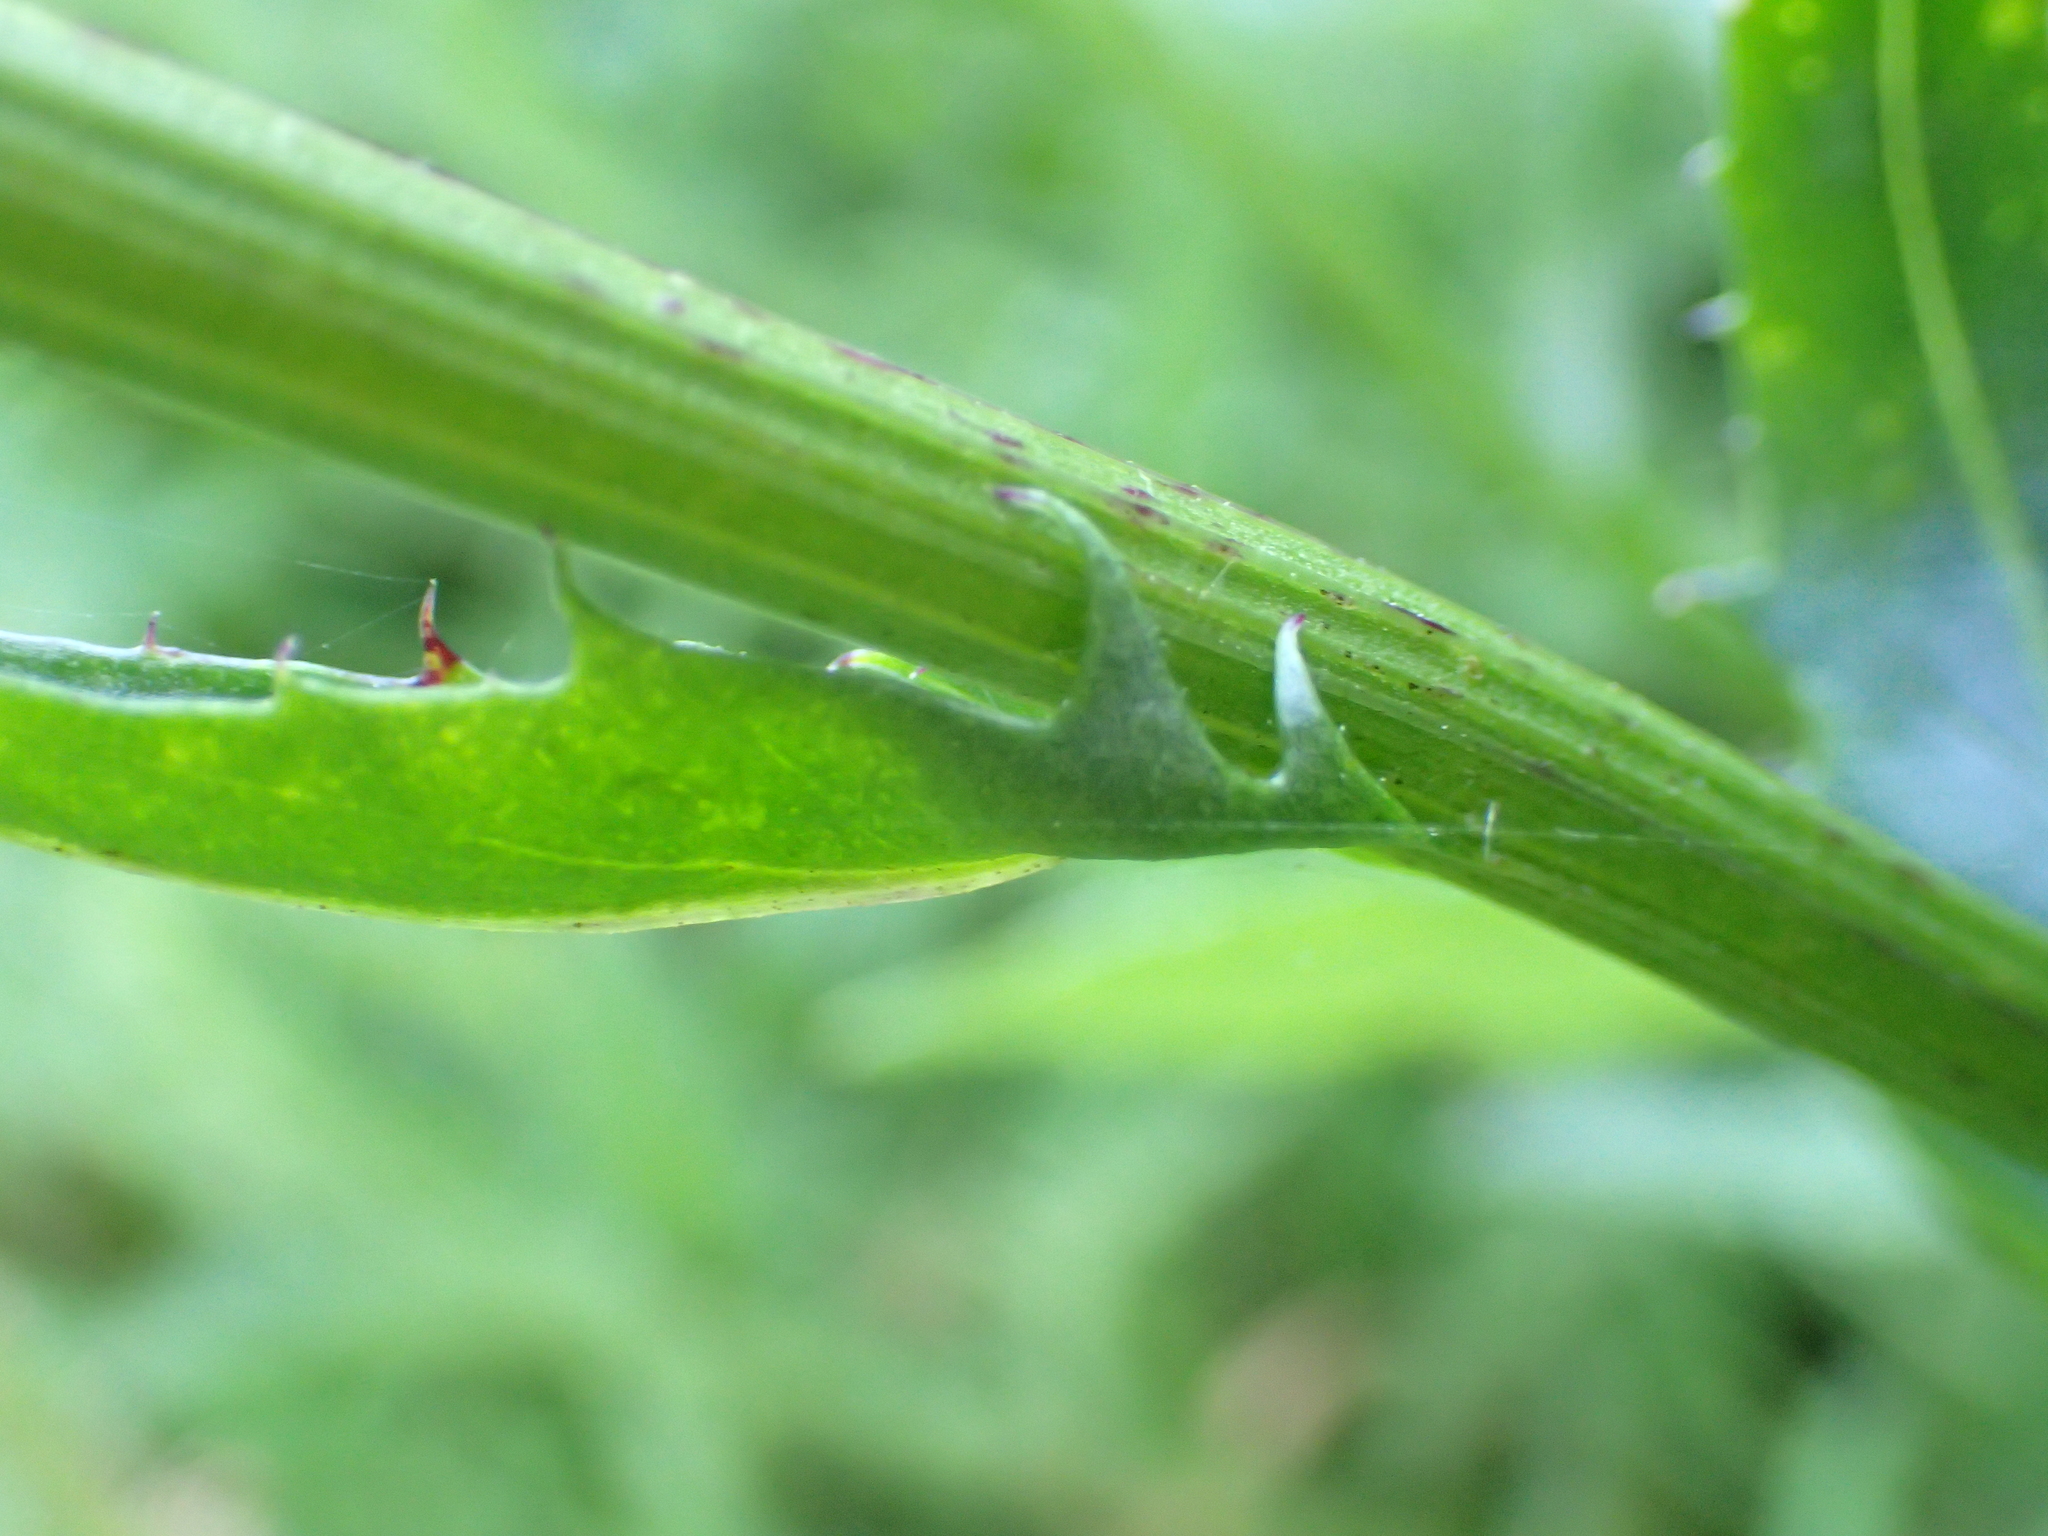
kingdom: Plantae
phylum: Tracheophyta
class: Magnoliopsida
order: Asterales
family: Asteraceae
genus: Senecio
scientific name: Senecio glastifolius
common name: Woad-leaved ragwort
